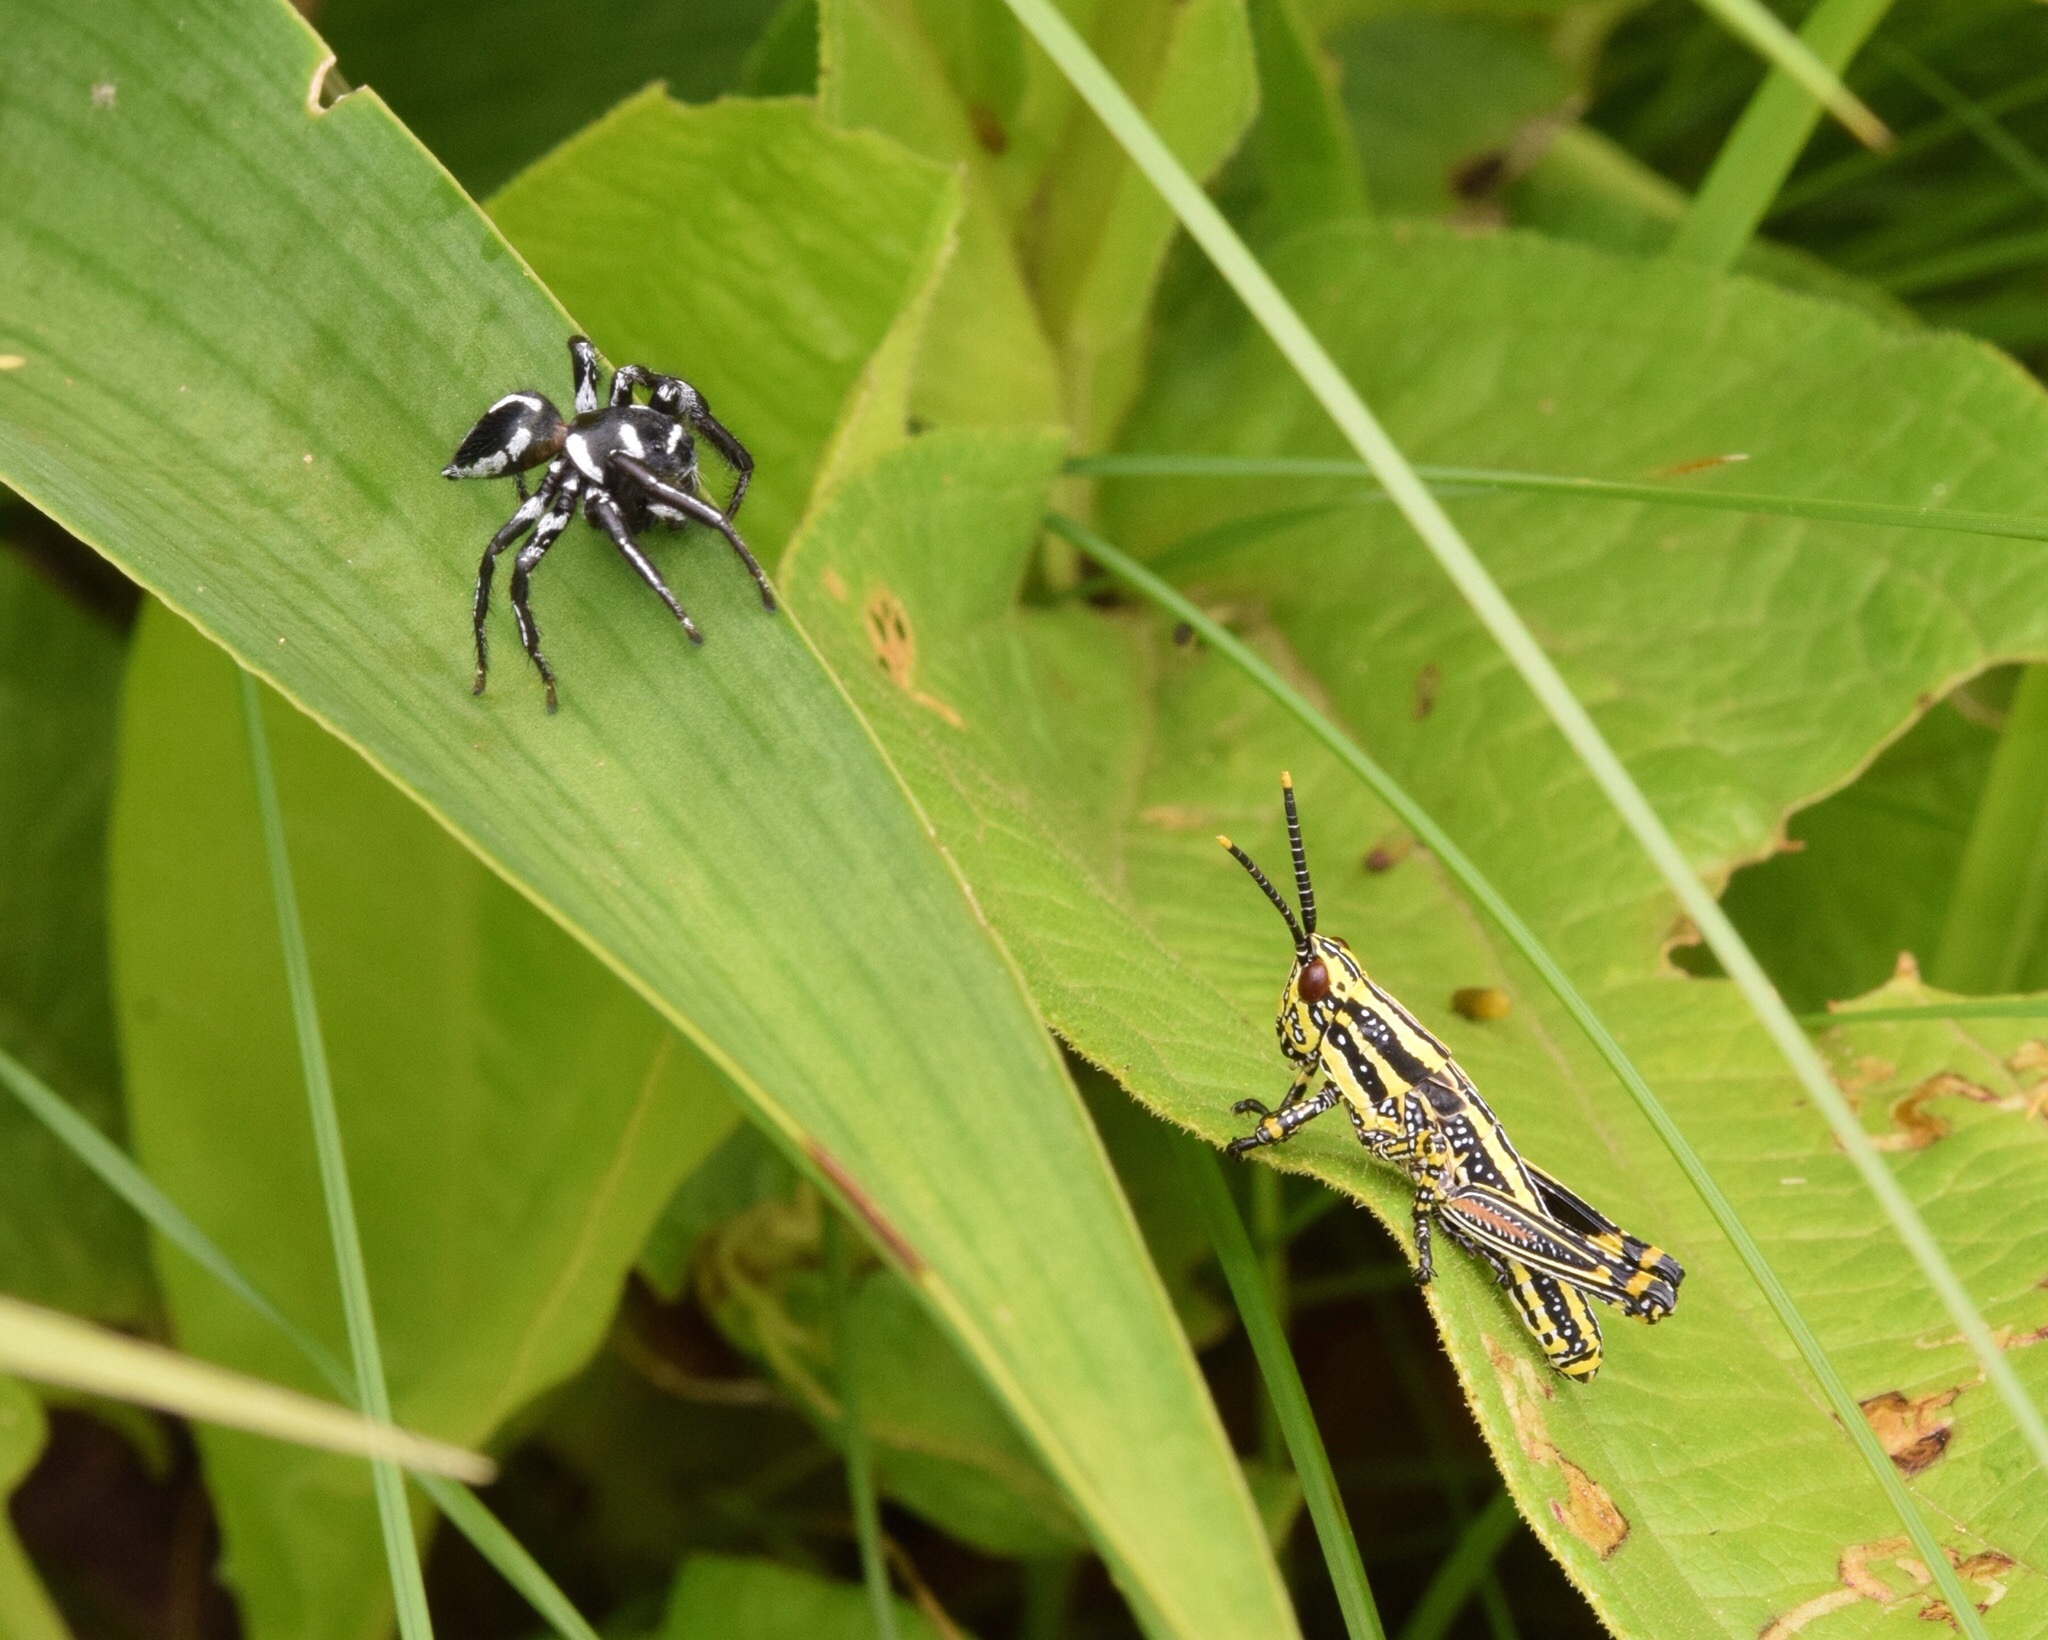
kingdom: Animalia
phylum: Arthropoda
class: Insecta
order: Orthoptera
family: Pyrgomorphidae
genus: Zonocerus
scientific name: Zonocerus elegans
